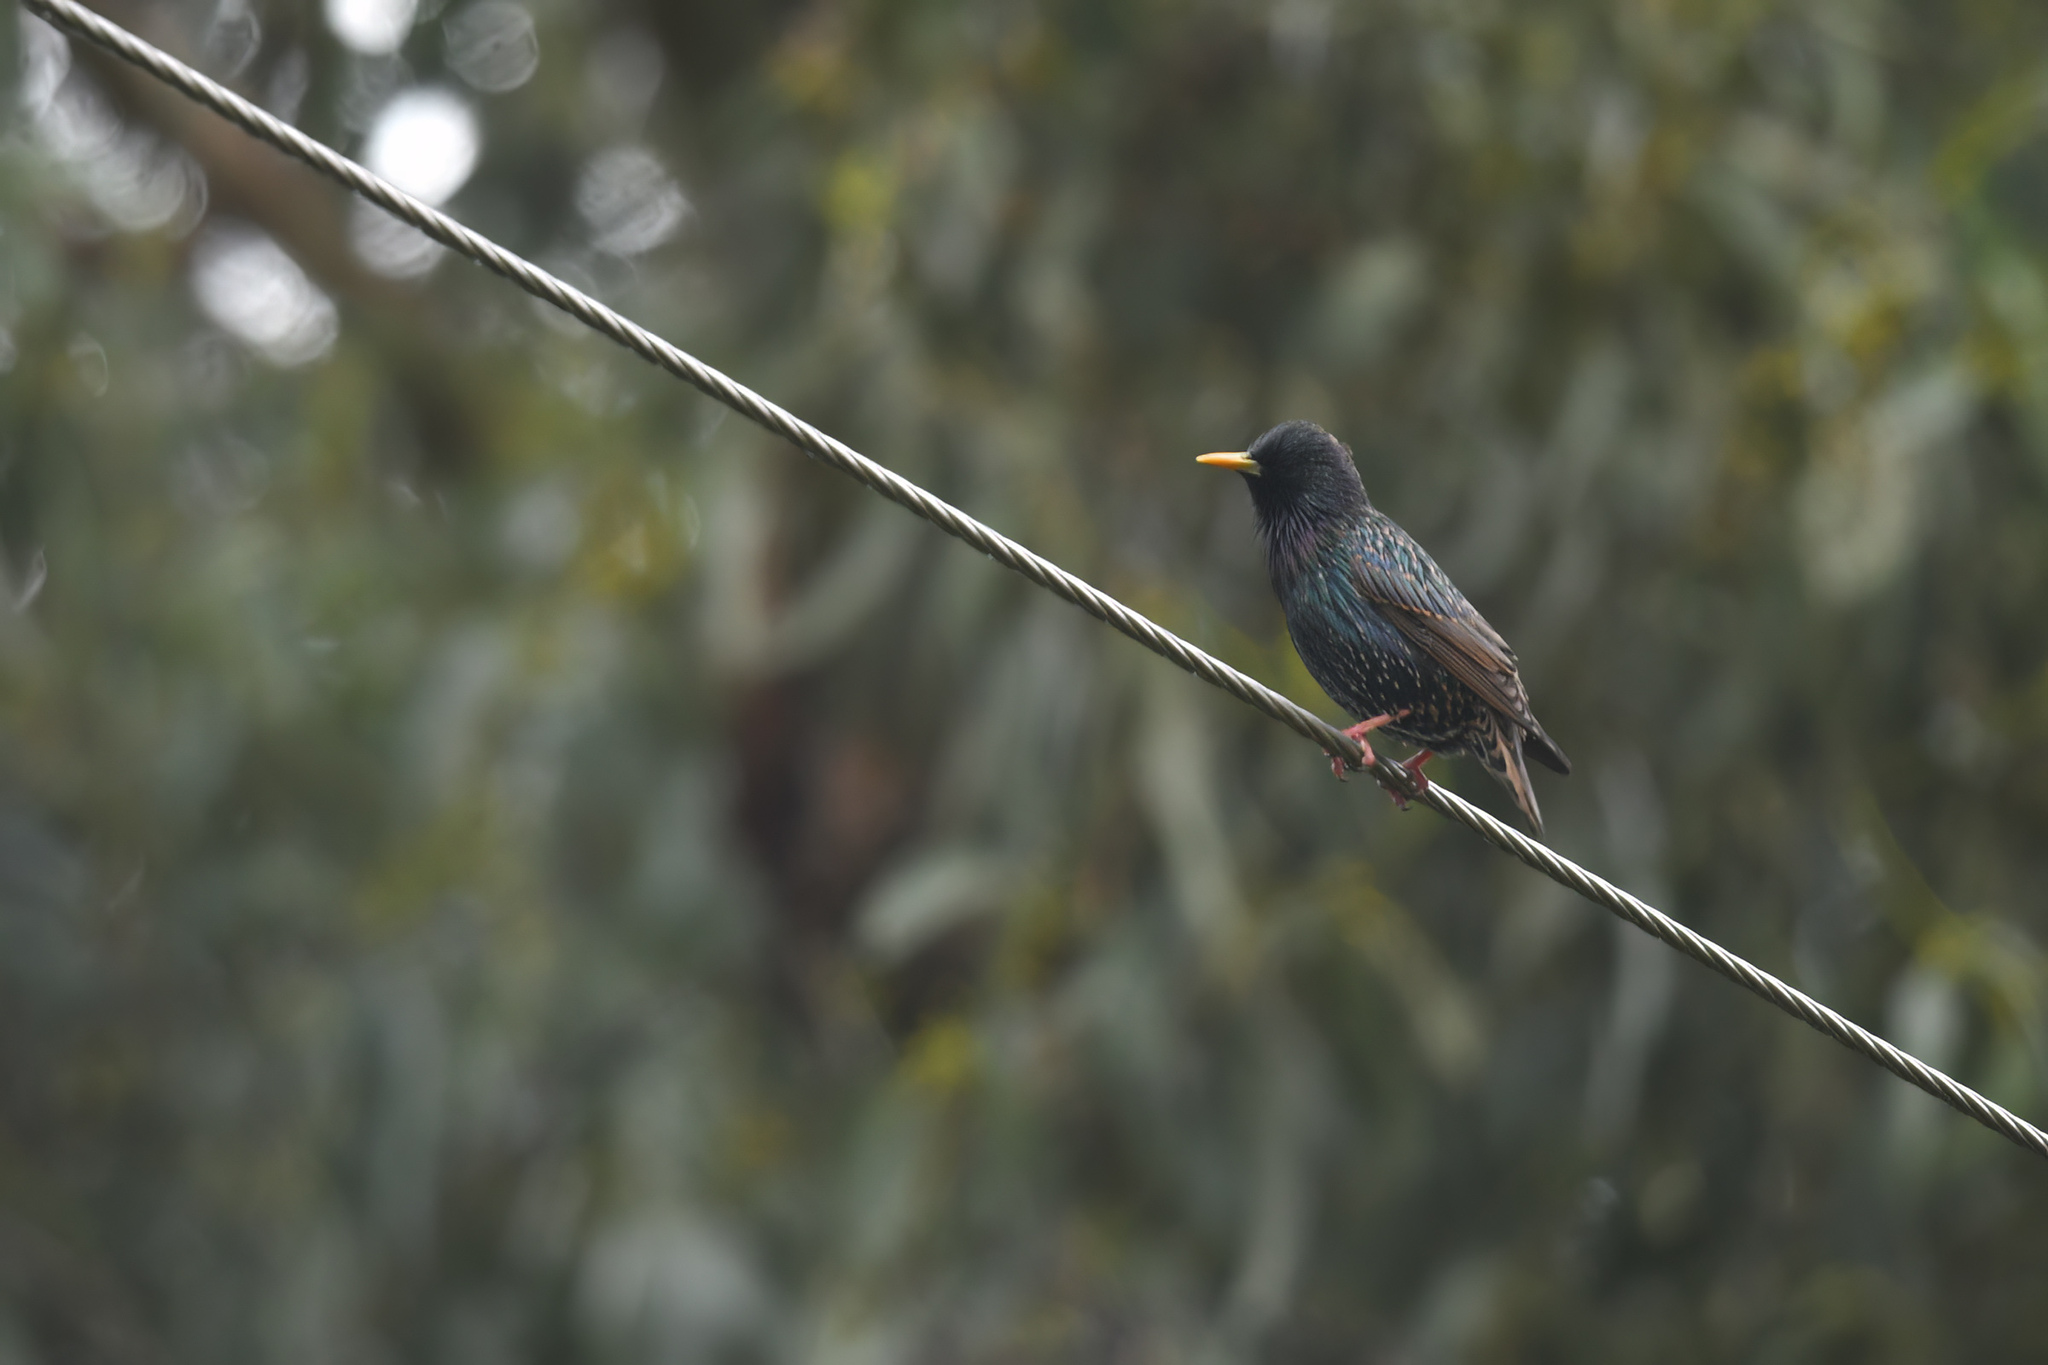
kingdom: Animalia
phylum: Chordata
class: Aves
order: Passeriformes
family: Sturnidae
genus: Sturnus
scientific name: Sturnus vulgaris
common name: Common starling
